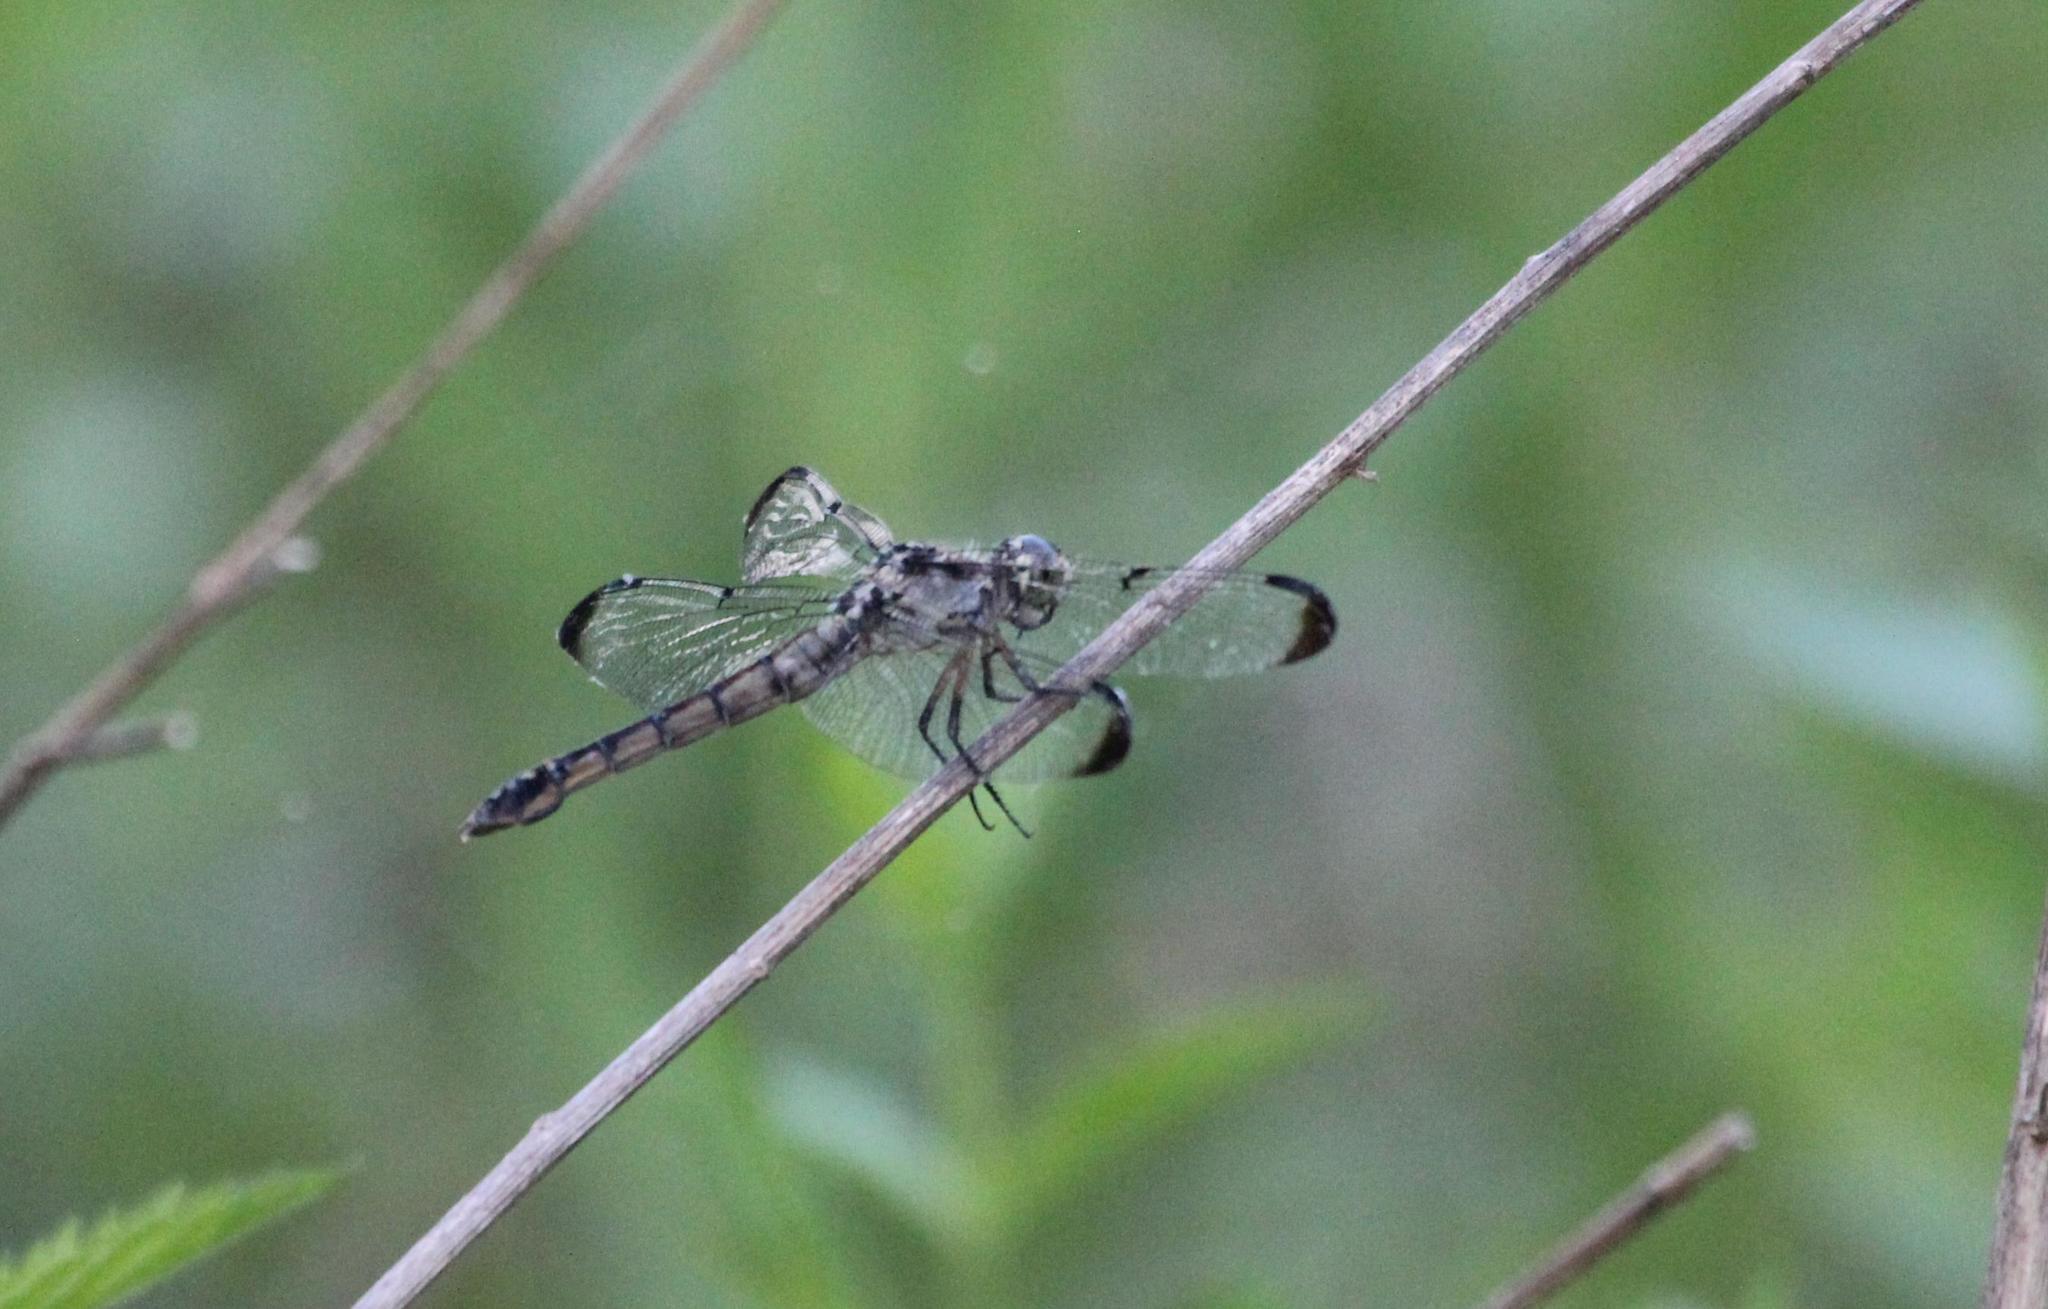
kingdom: Animalia
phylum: Arthropoda
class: Insecta
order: Odonata
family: Libellulidae
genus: Libellula
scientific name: Libellula vibrans
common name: Great blue skimmer
